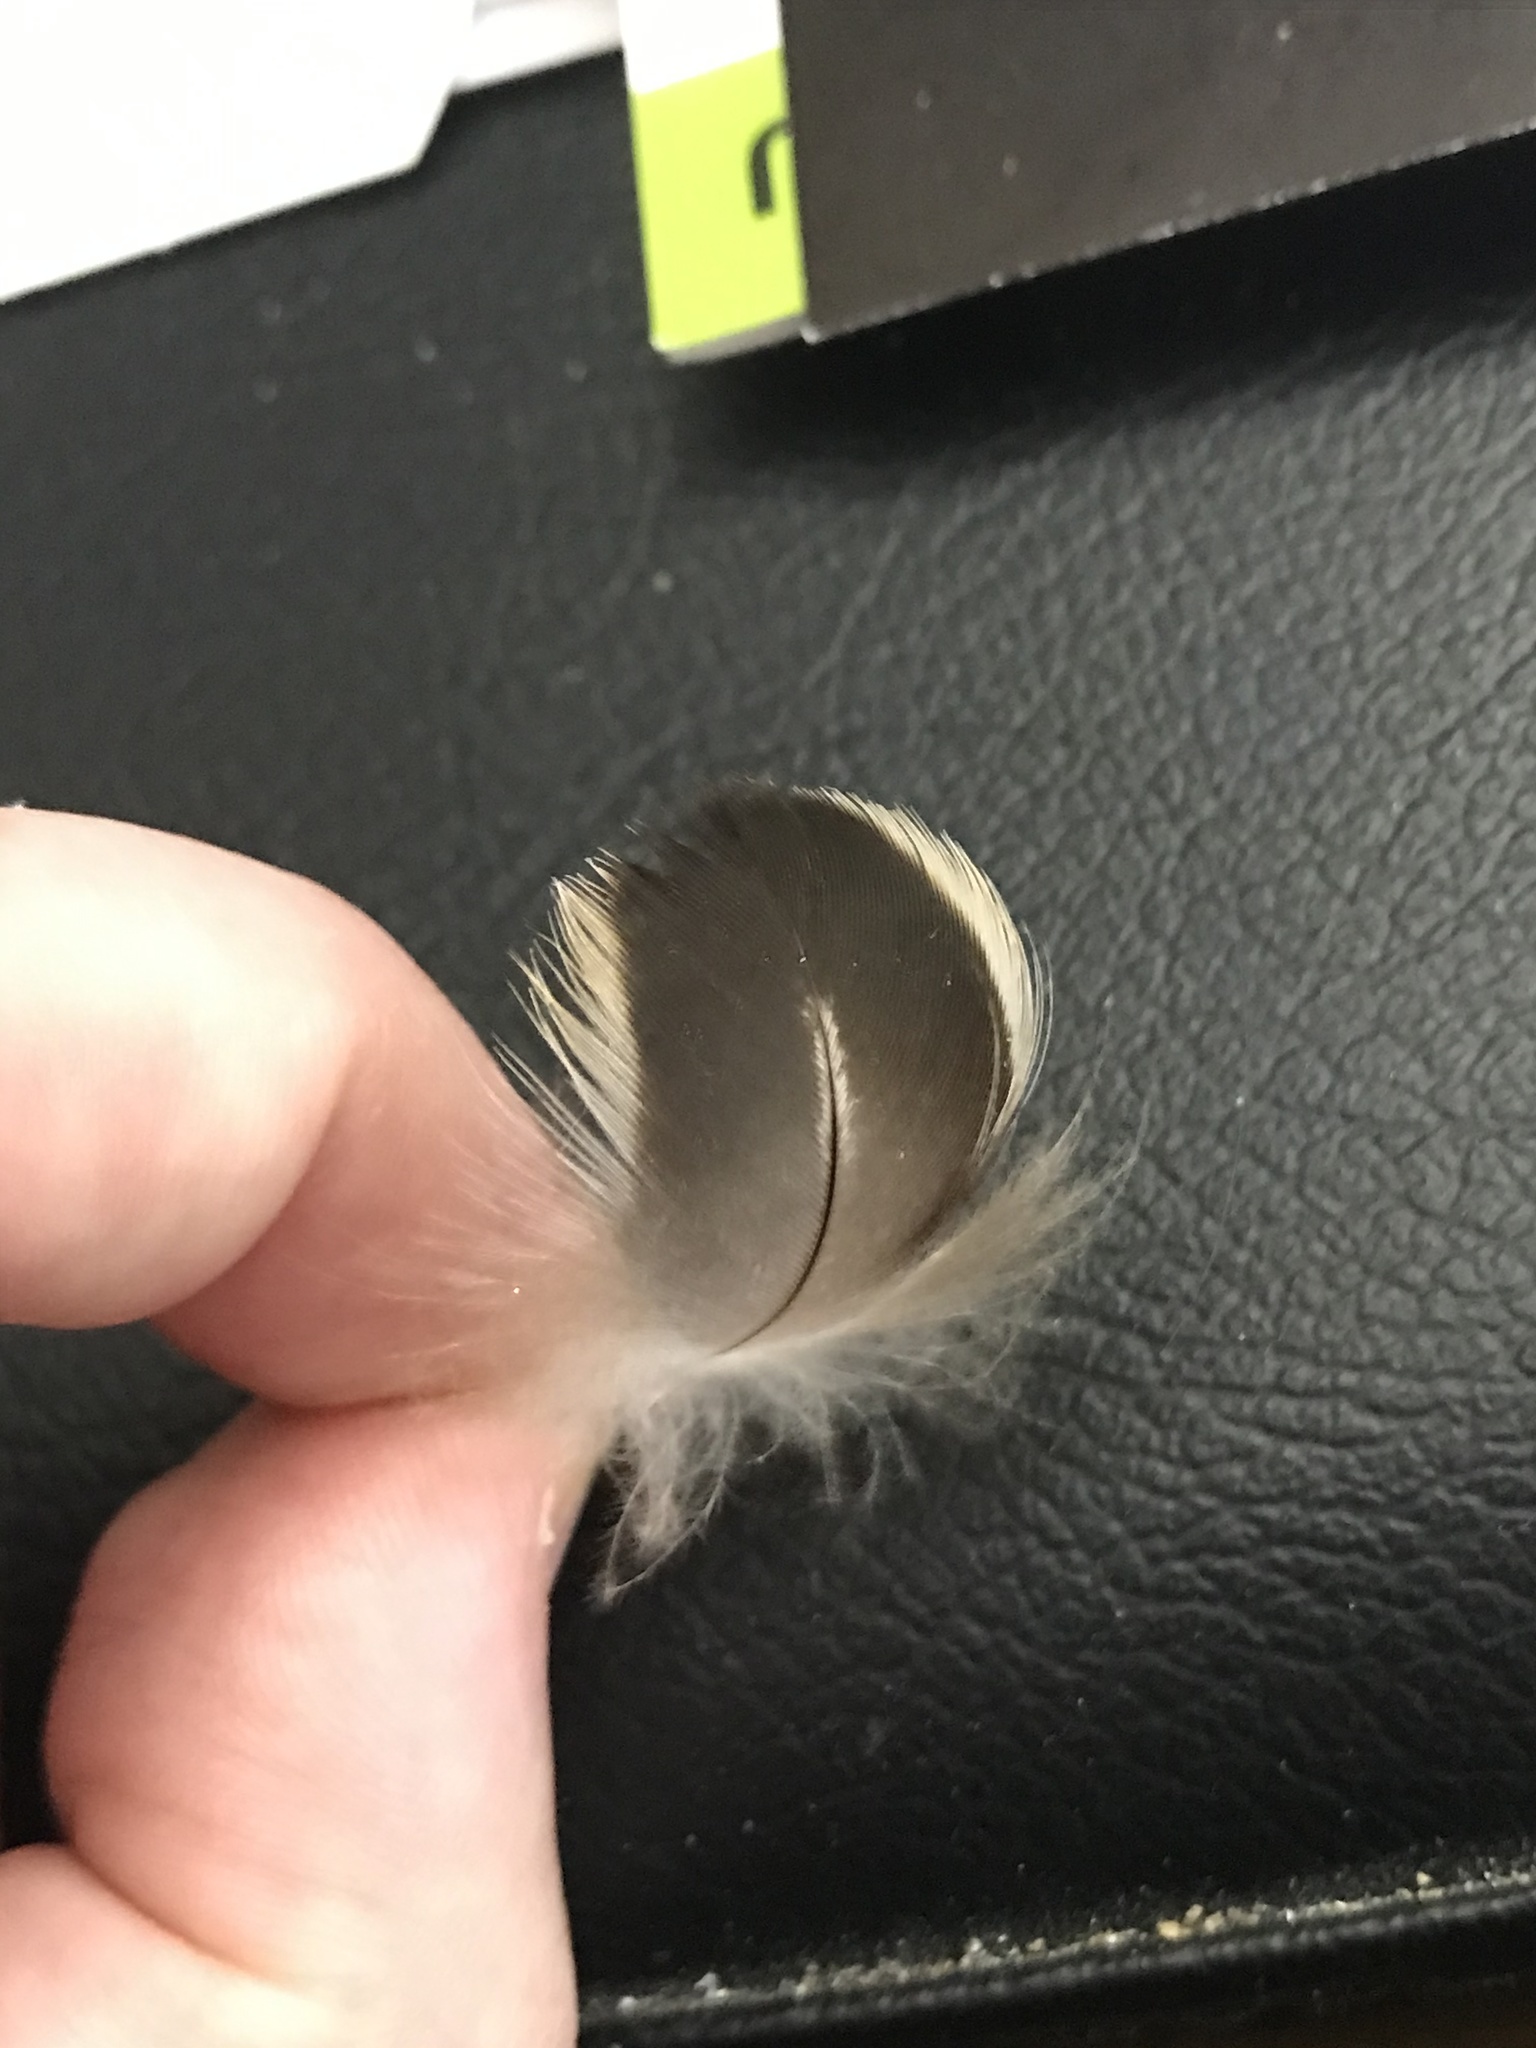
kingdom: Animalia
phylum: Chordata
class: Aves
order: Anseriformes
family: Anatidae
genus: Anas
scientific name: Anas platyrhynchos
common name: Mallard
